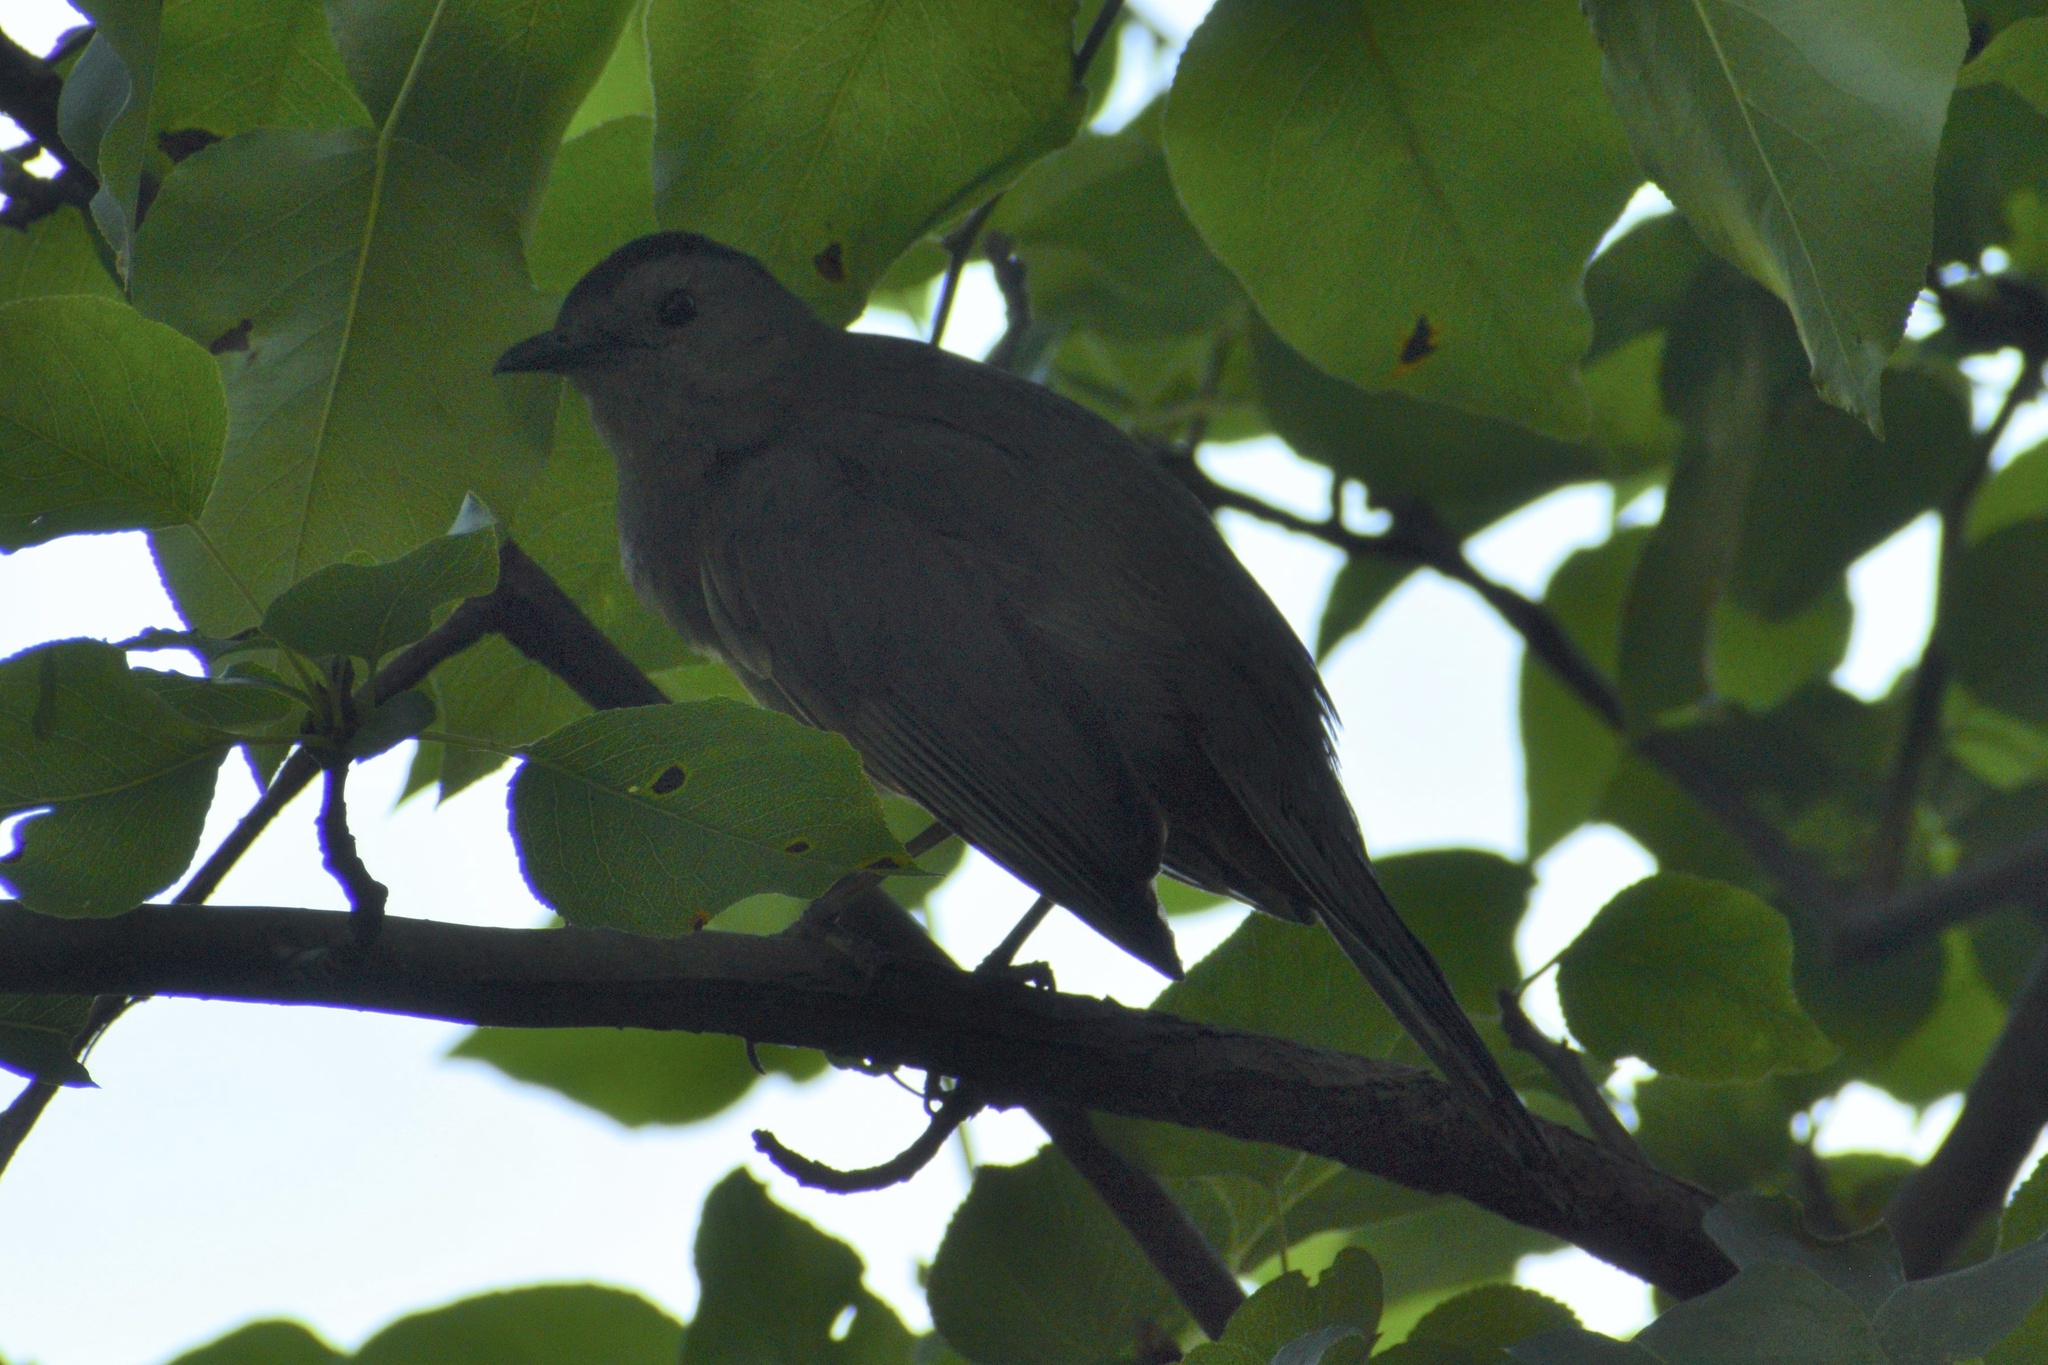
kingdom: Animalia
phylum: Chordata
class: Aves
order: Passeriformes
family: Mimidae
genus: Dumetella
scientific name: Dumetella carolinensis
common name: Gray catbird
